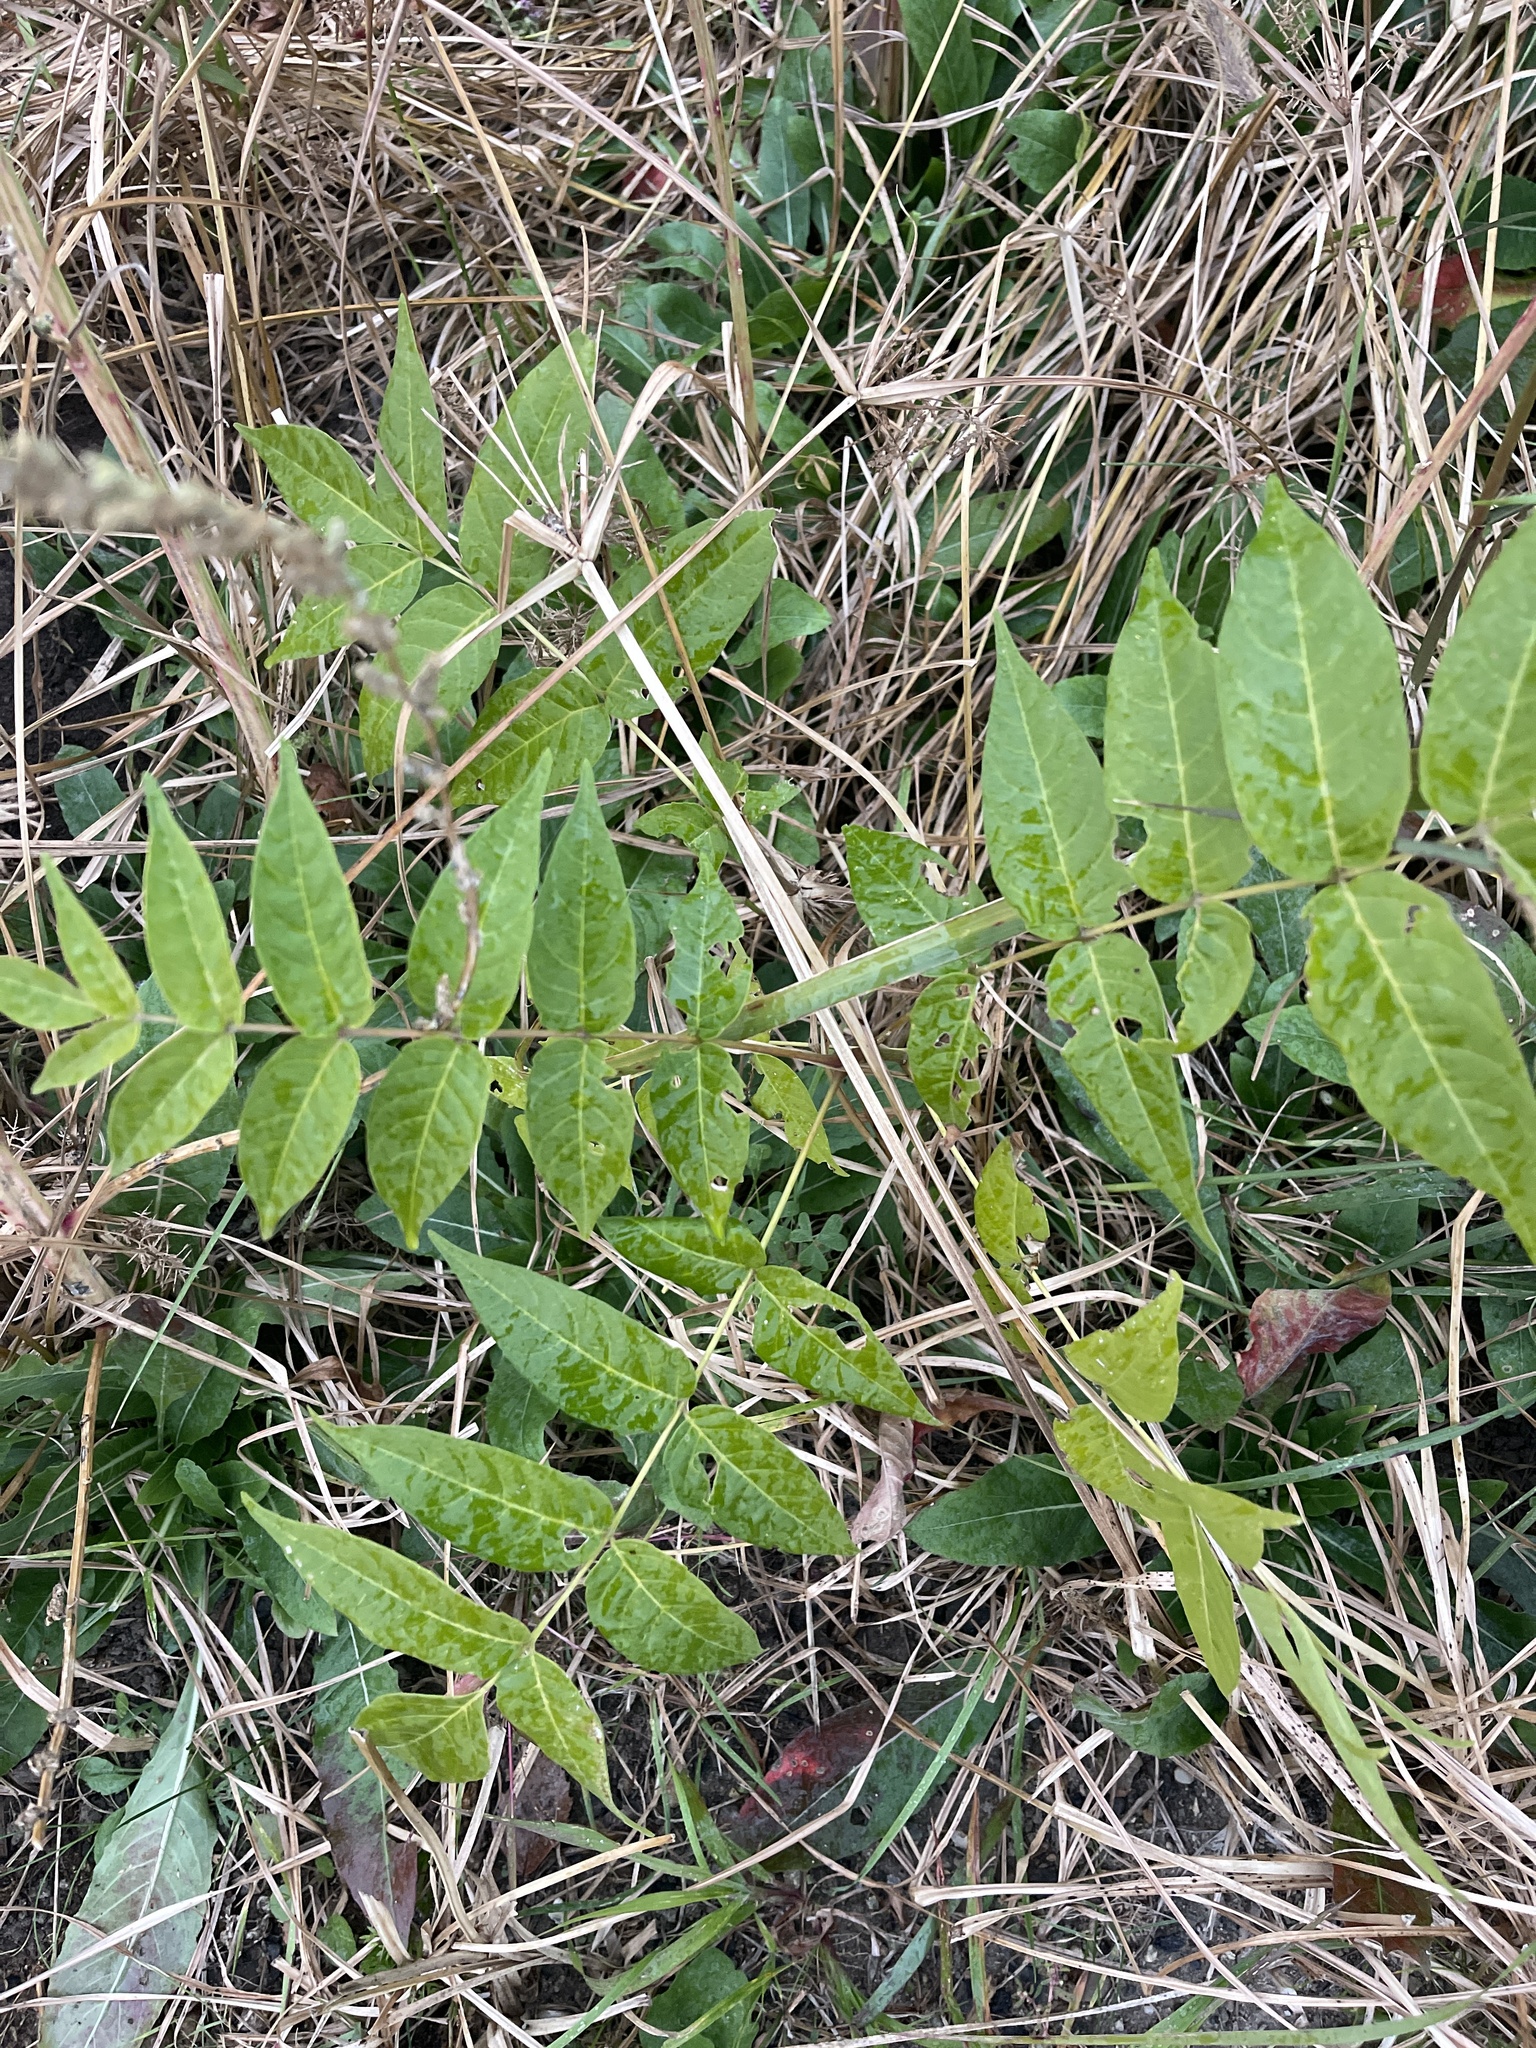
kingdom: Plantae
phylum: Tracheophyta
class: Magnoliopsida
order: Sapindales
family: Simaroubaceae
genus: Ailanthus
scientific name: Ailanthus altissima
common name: Tree-of-heaven
